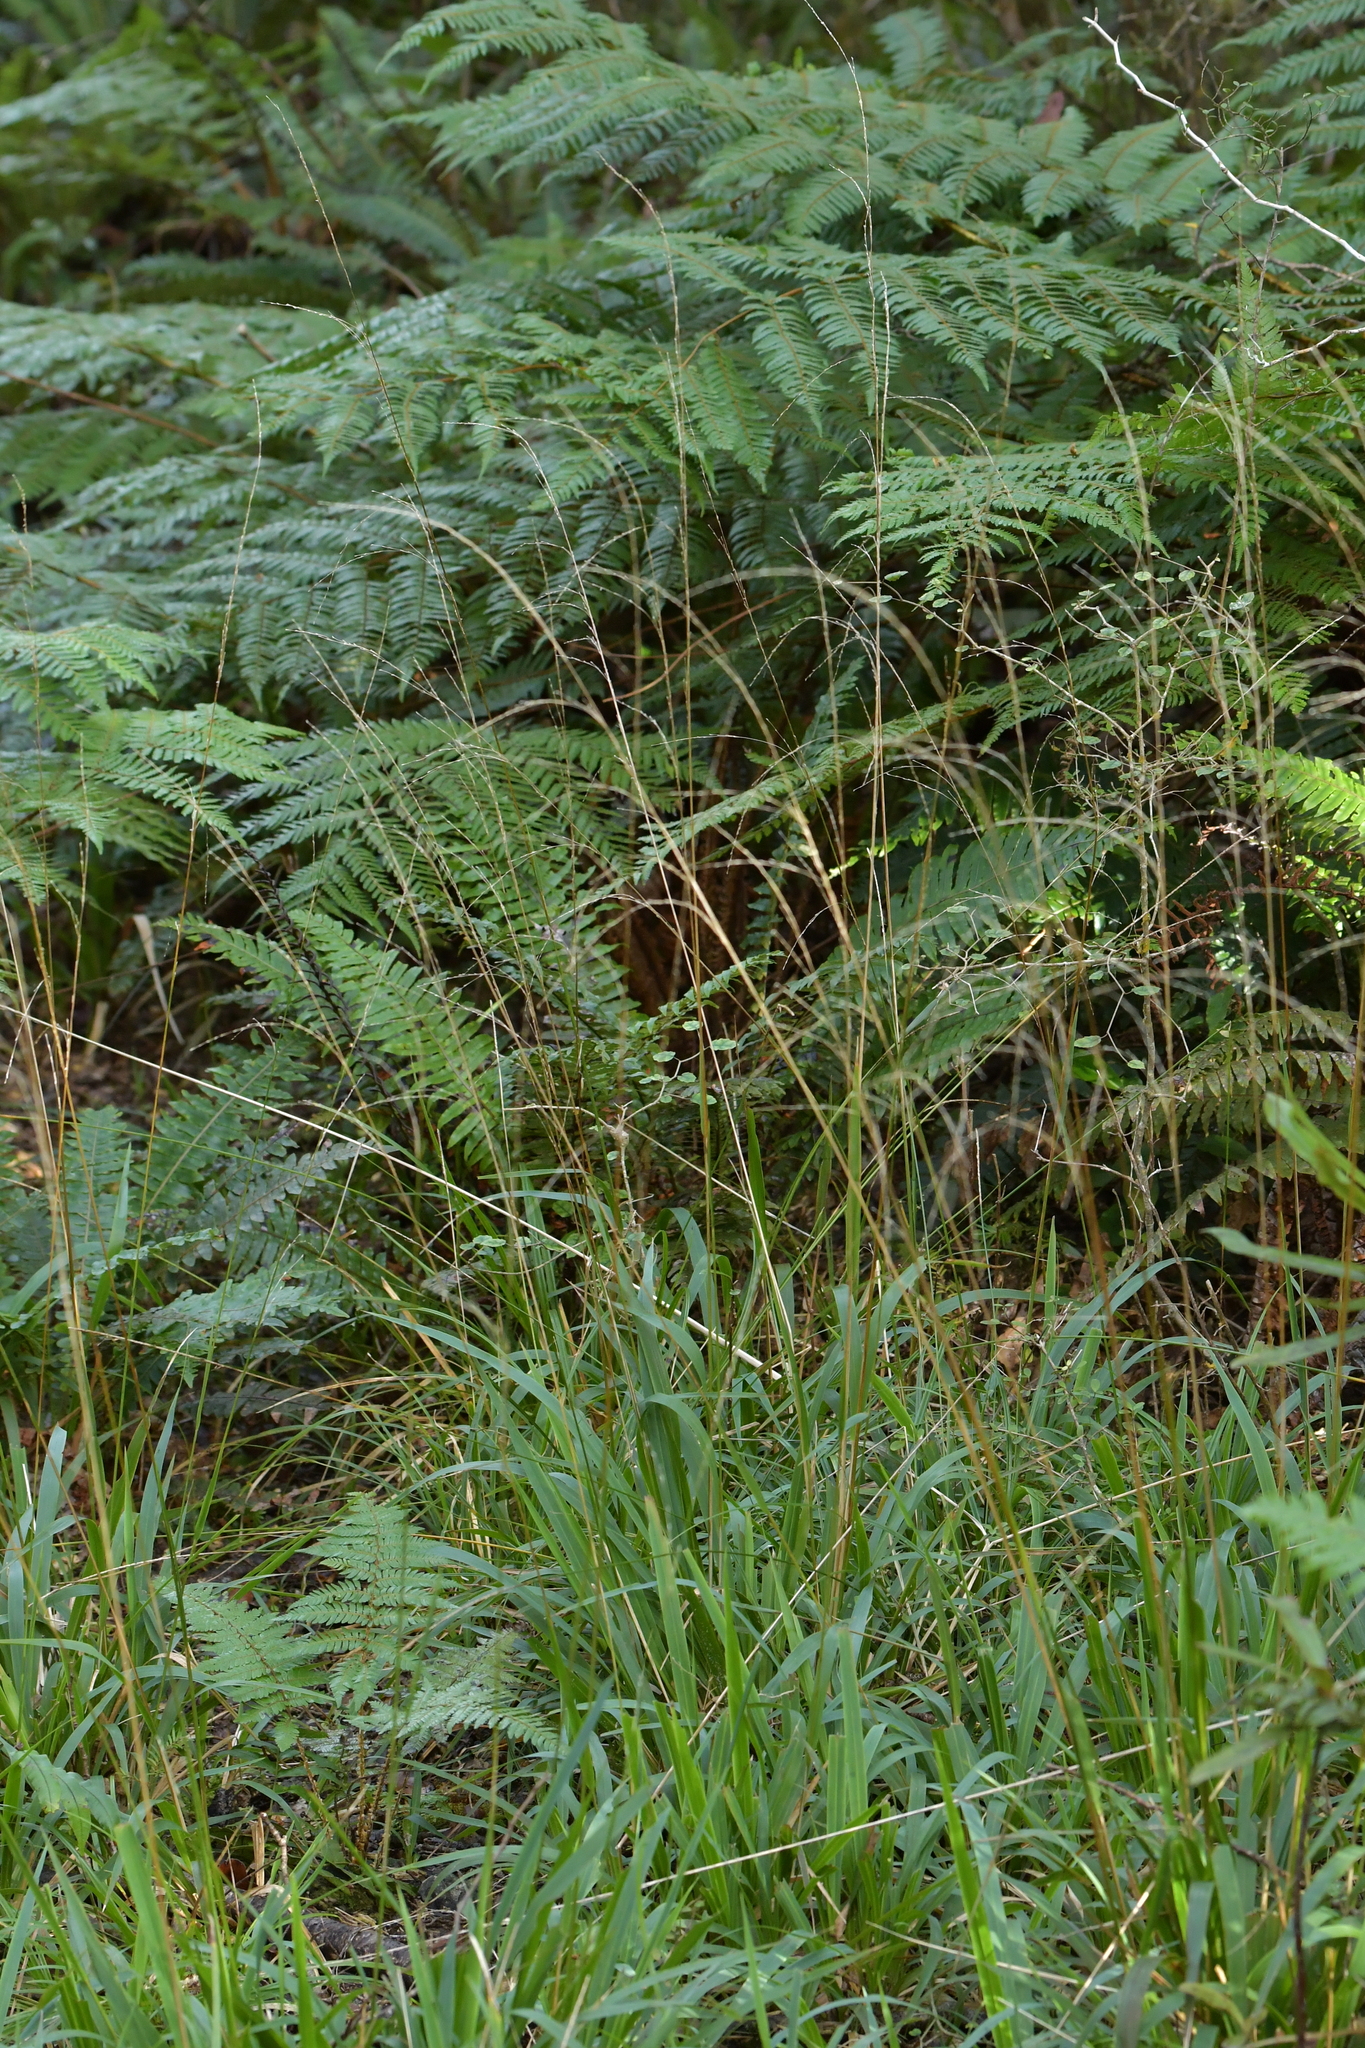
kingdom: Plantae
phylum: Tracheophyta
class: Liliopsida
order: Poales
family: Poaceae
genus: Ehrharta
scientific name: Ehrharta diplax
